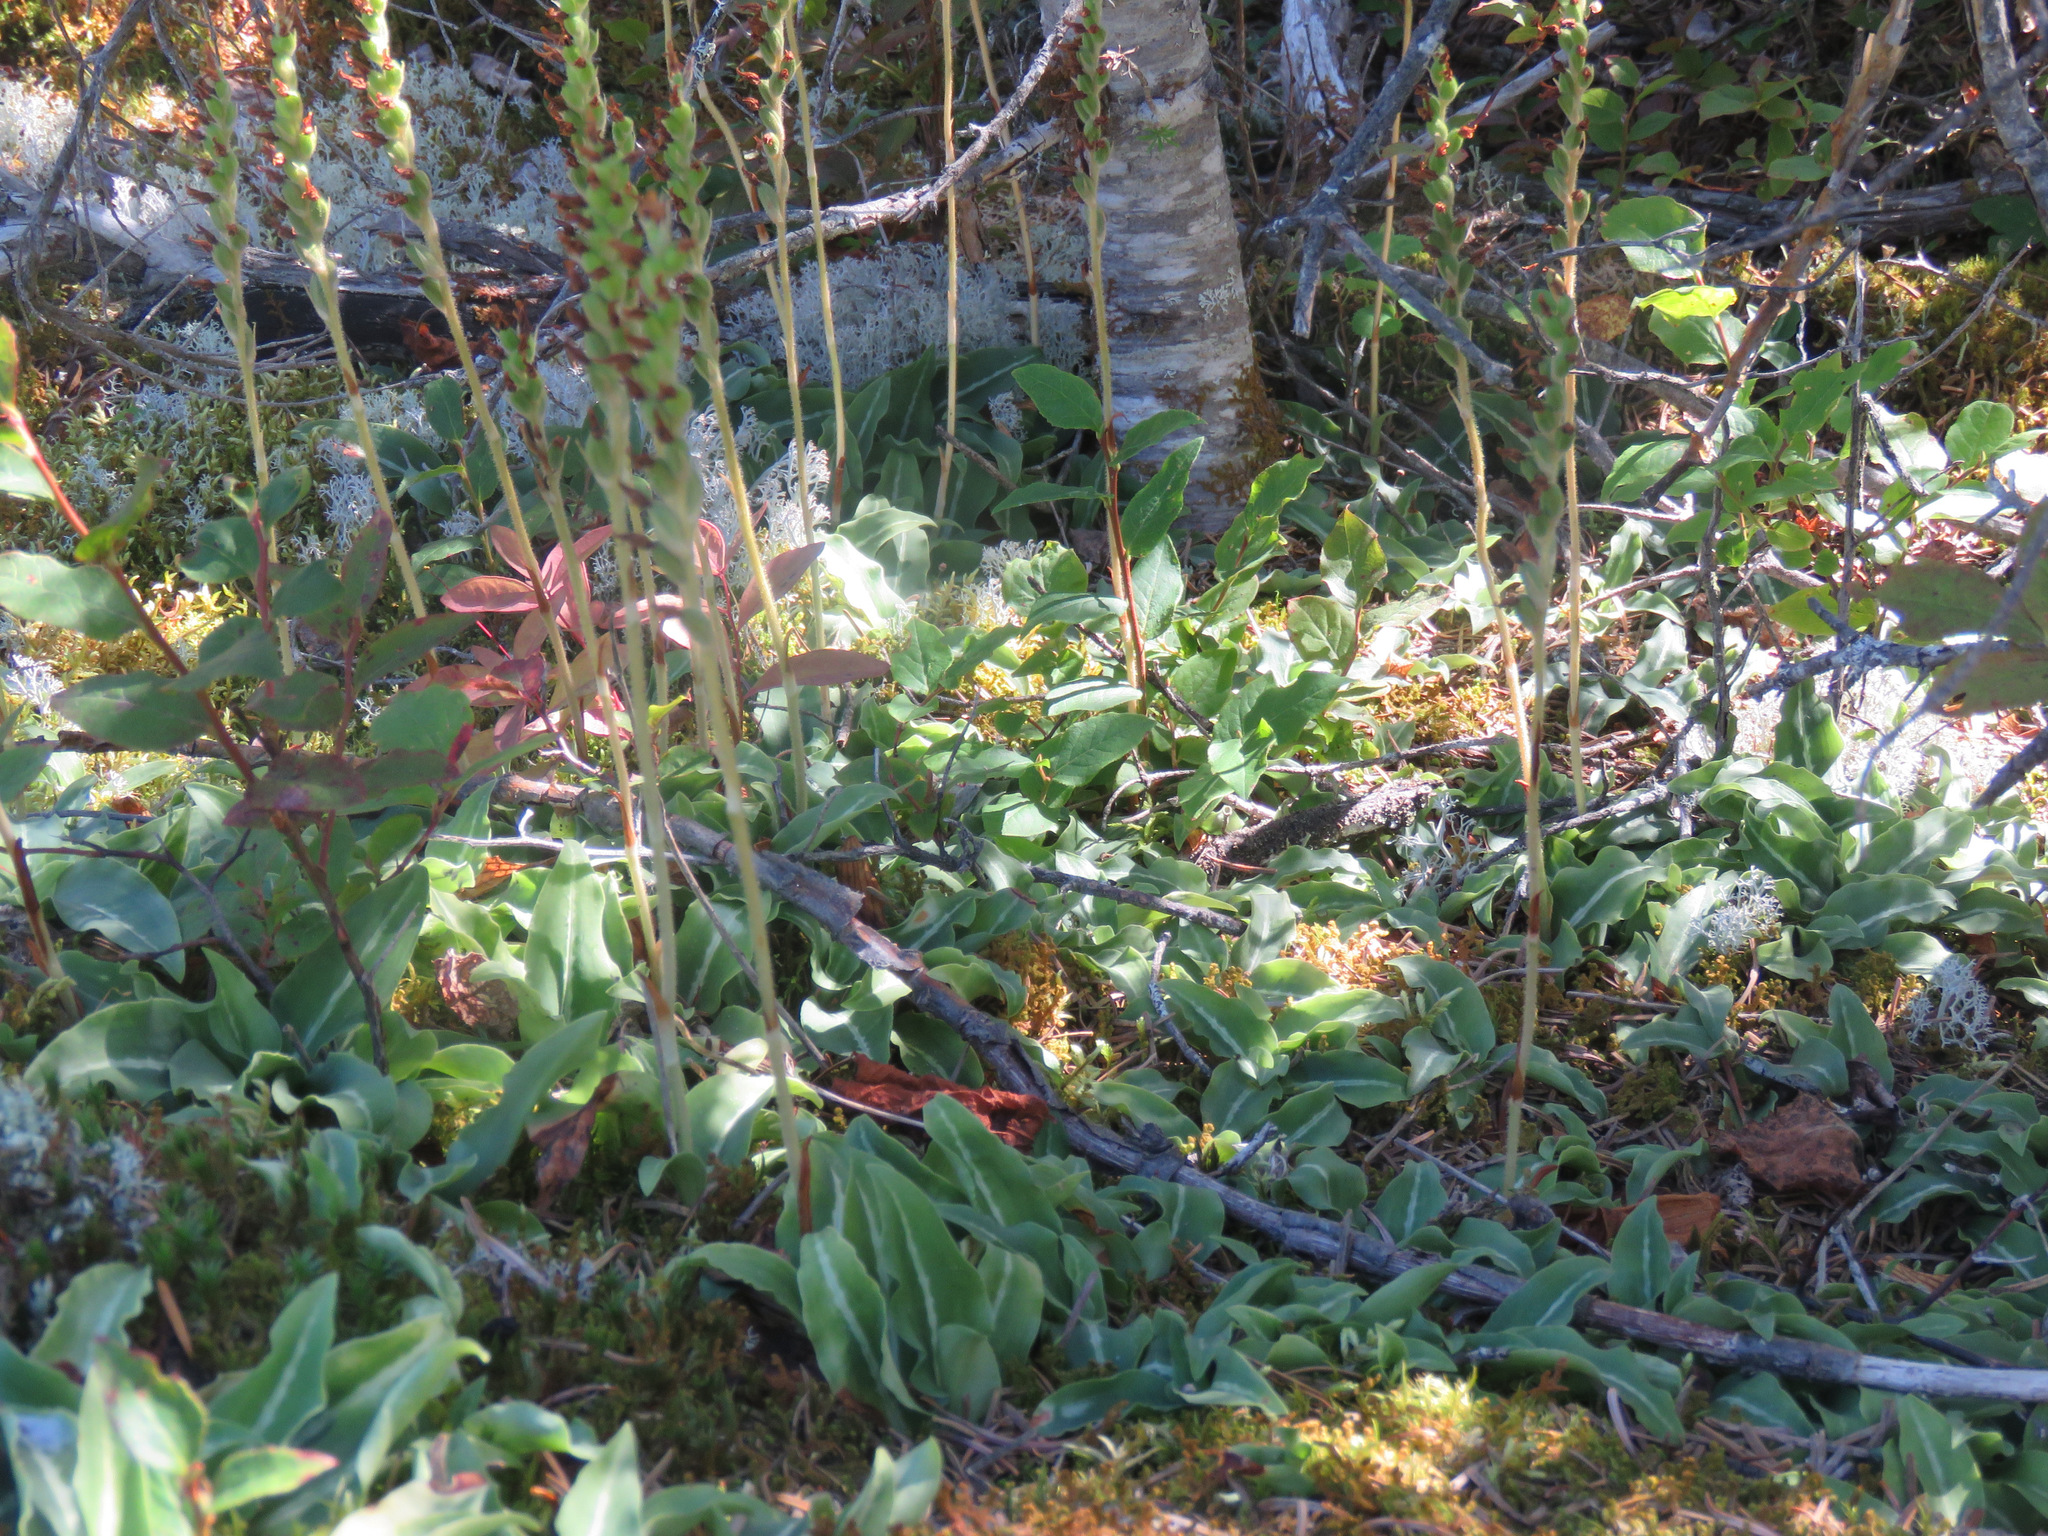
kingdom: Plantae
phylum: Tracheophyta
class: Liliopsida
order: Asparagales
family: Orchidaceae
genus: Goodyera
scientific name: Goodyera oblongifolia
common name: Giant rattlesnake-plantain
